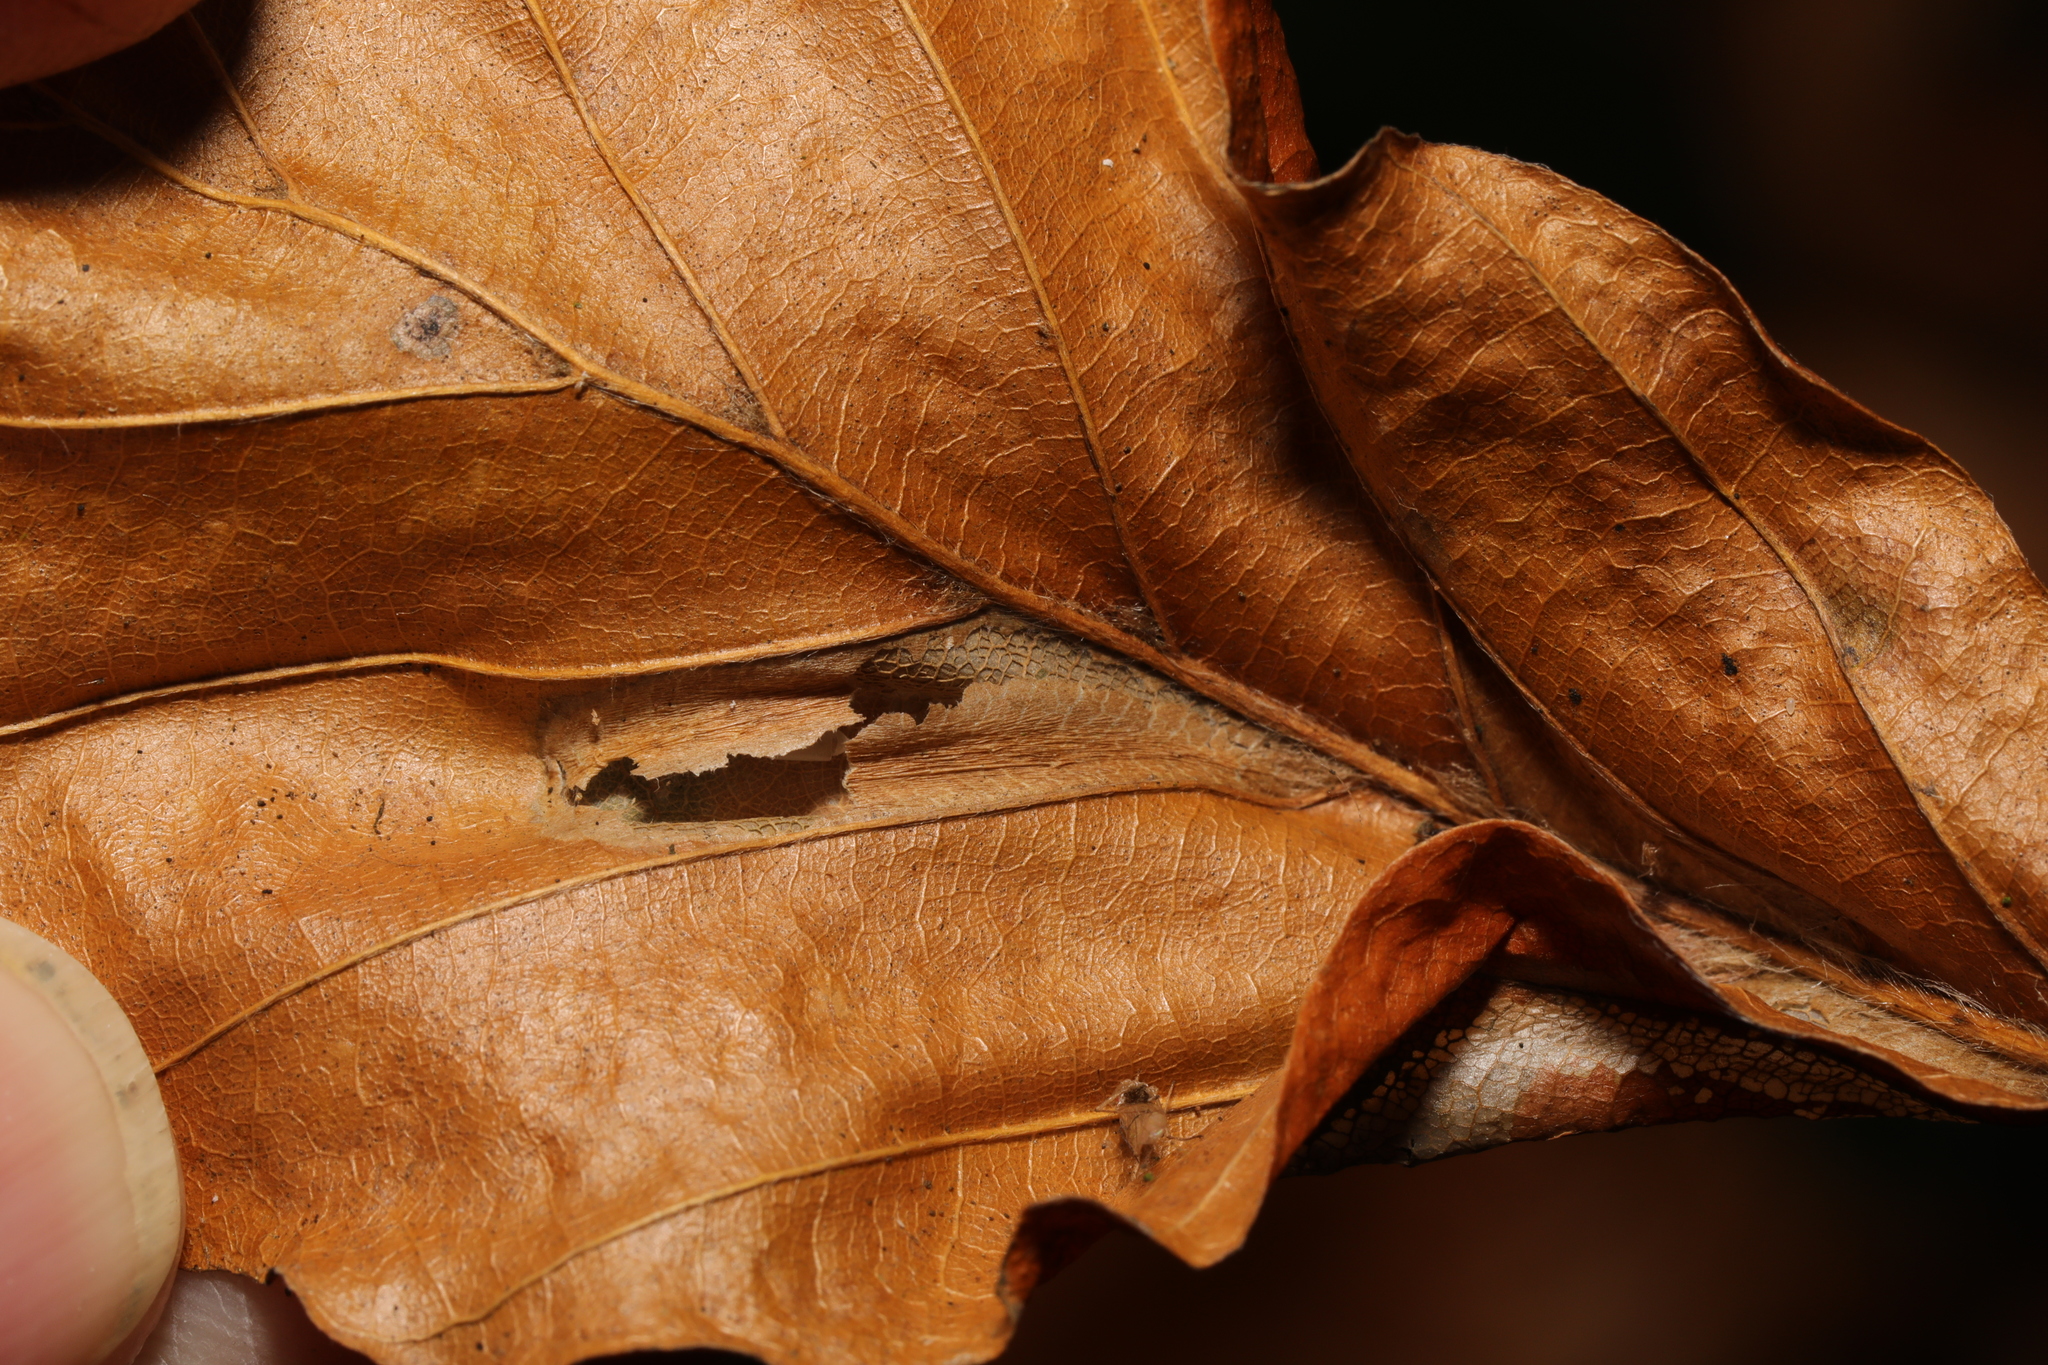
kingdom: Animalia
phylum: Arthropoda
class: Insecta
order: Lepidoptera
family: Gracillariidae
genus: Phyllonorycter
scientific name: Phyllonorycter maestingella
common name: Beech midget
